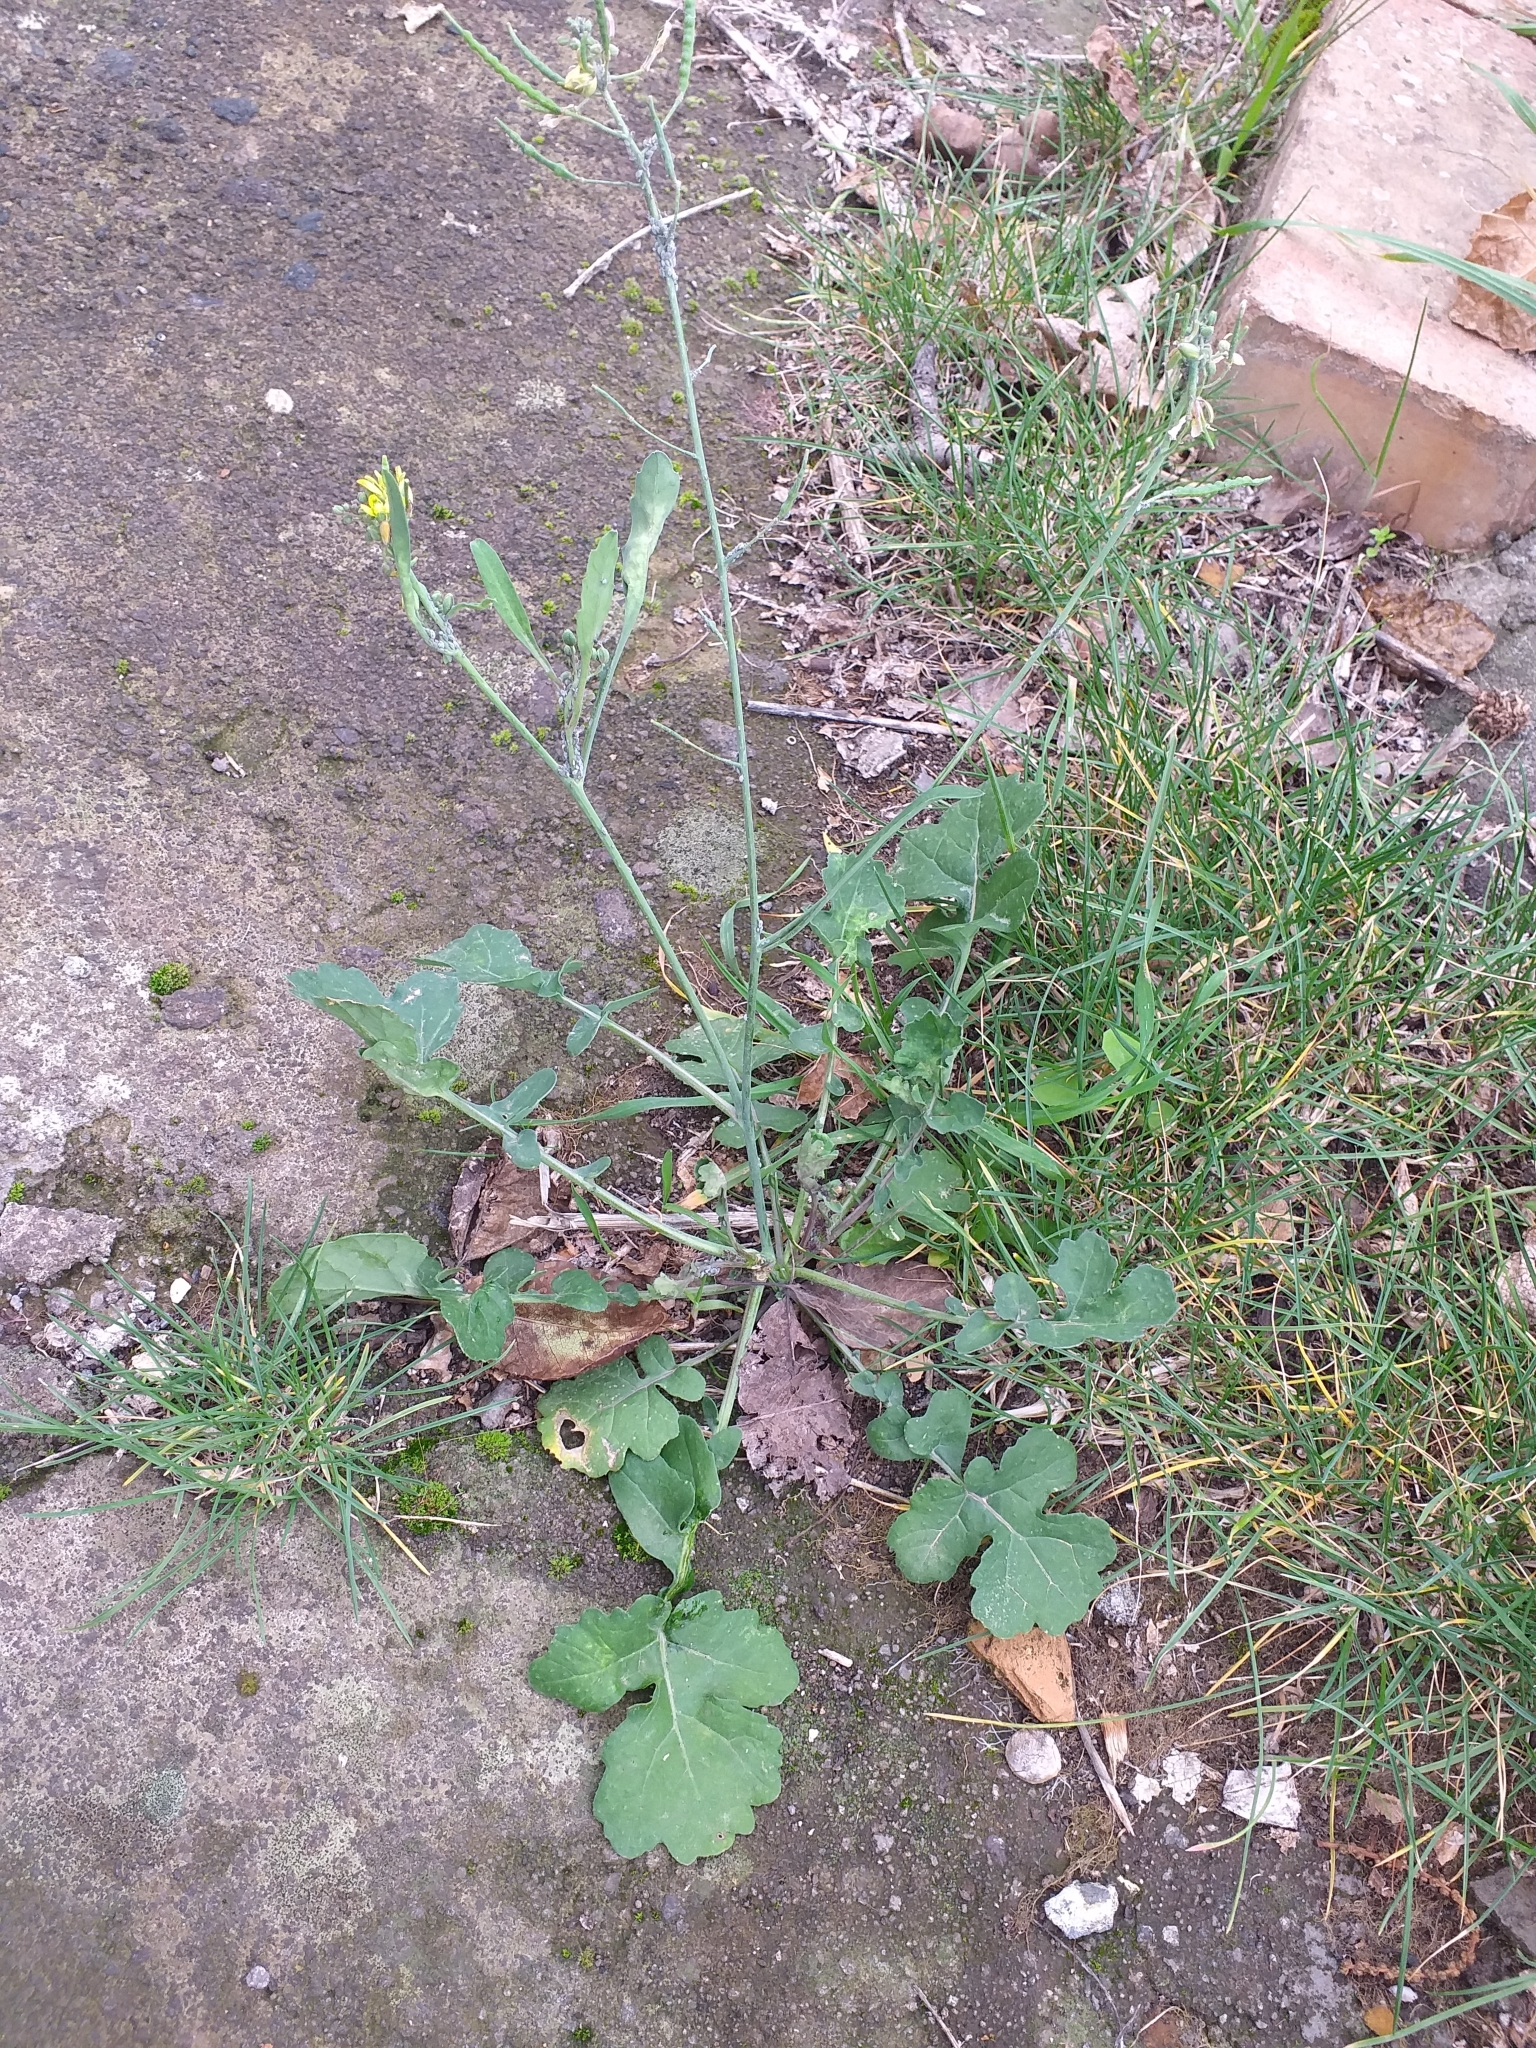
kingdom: Plantae
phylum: Tracheophyta
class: Magnoliopsida
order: Brassicales
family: Brassicaceae
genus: Brassica
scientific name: Brassica fruticulosa
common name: Twiggy turnip
